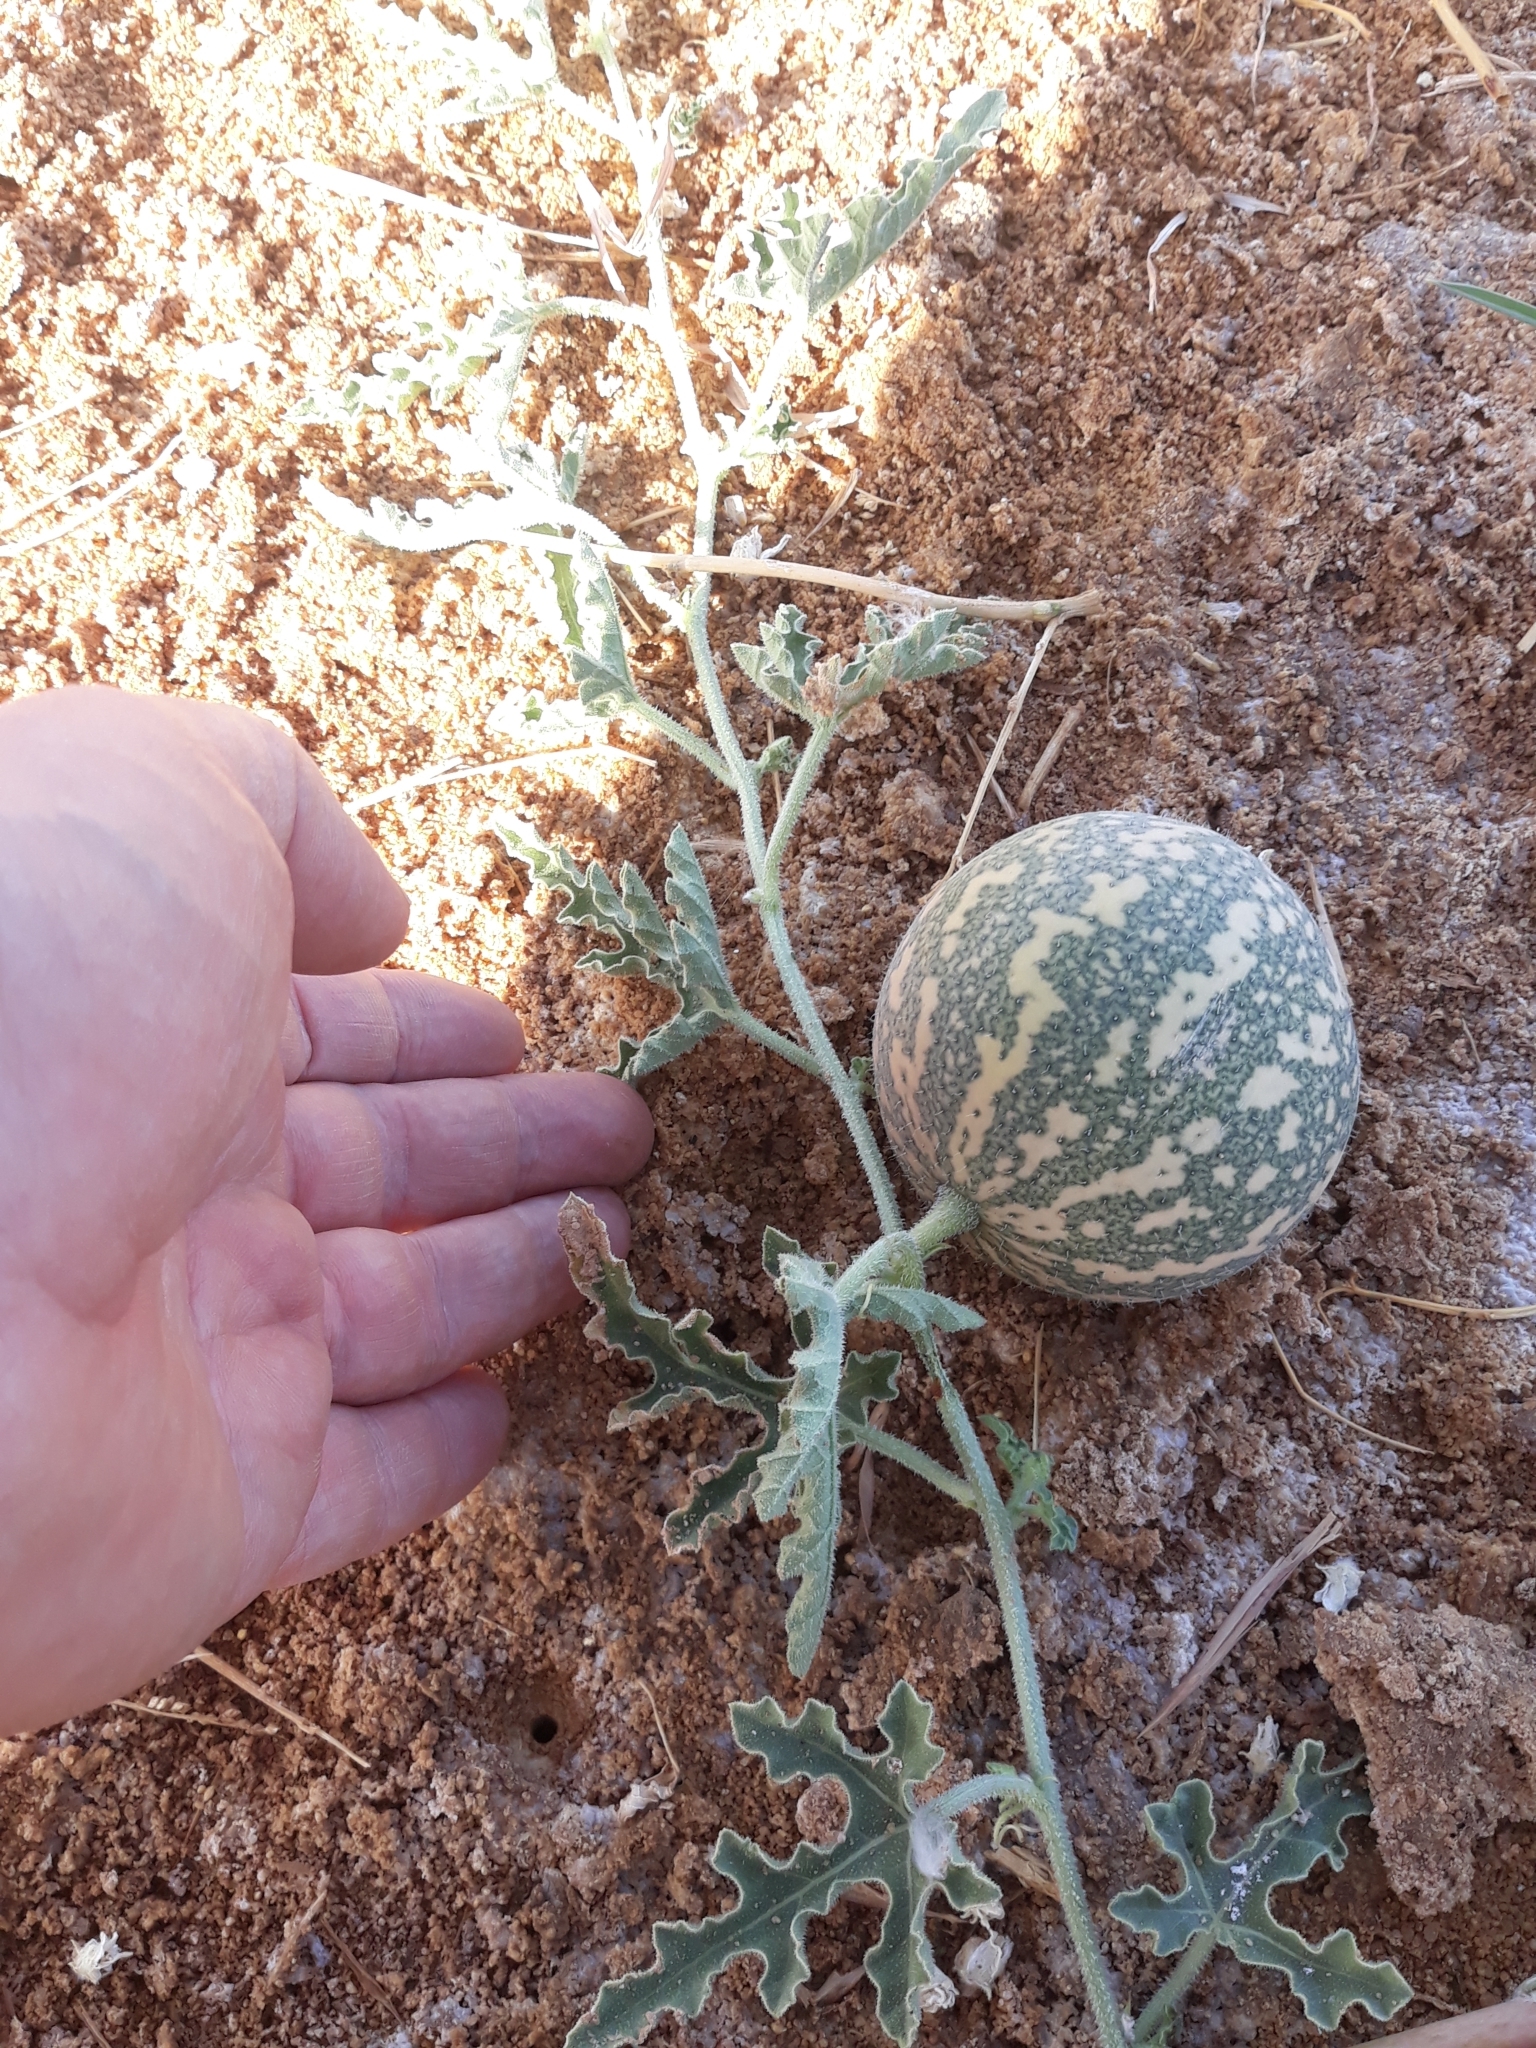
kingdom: Plantae
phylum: Tracheophyta
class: Magnoliopsida
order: Cucurbitales
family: Cucurbitaceae
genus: Citrullus
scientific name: Citrullus colocynthis
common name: Colocynth
